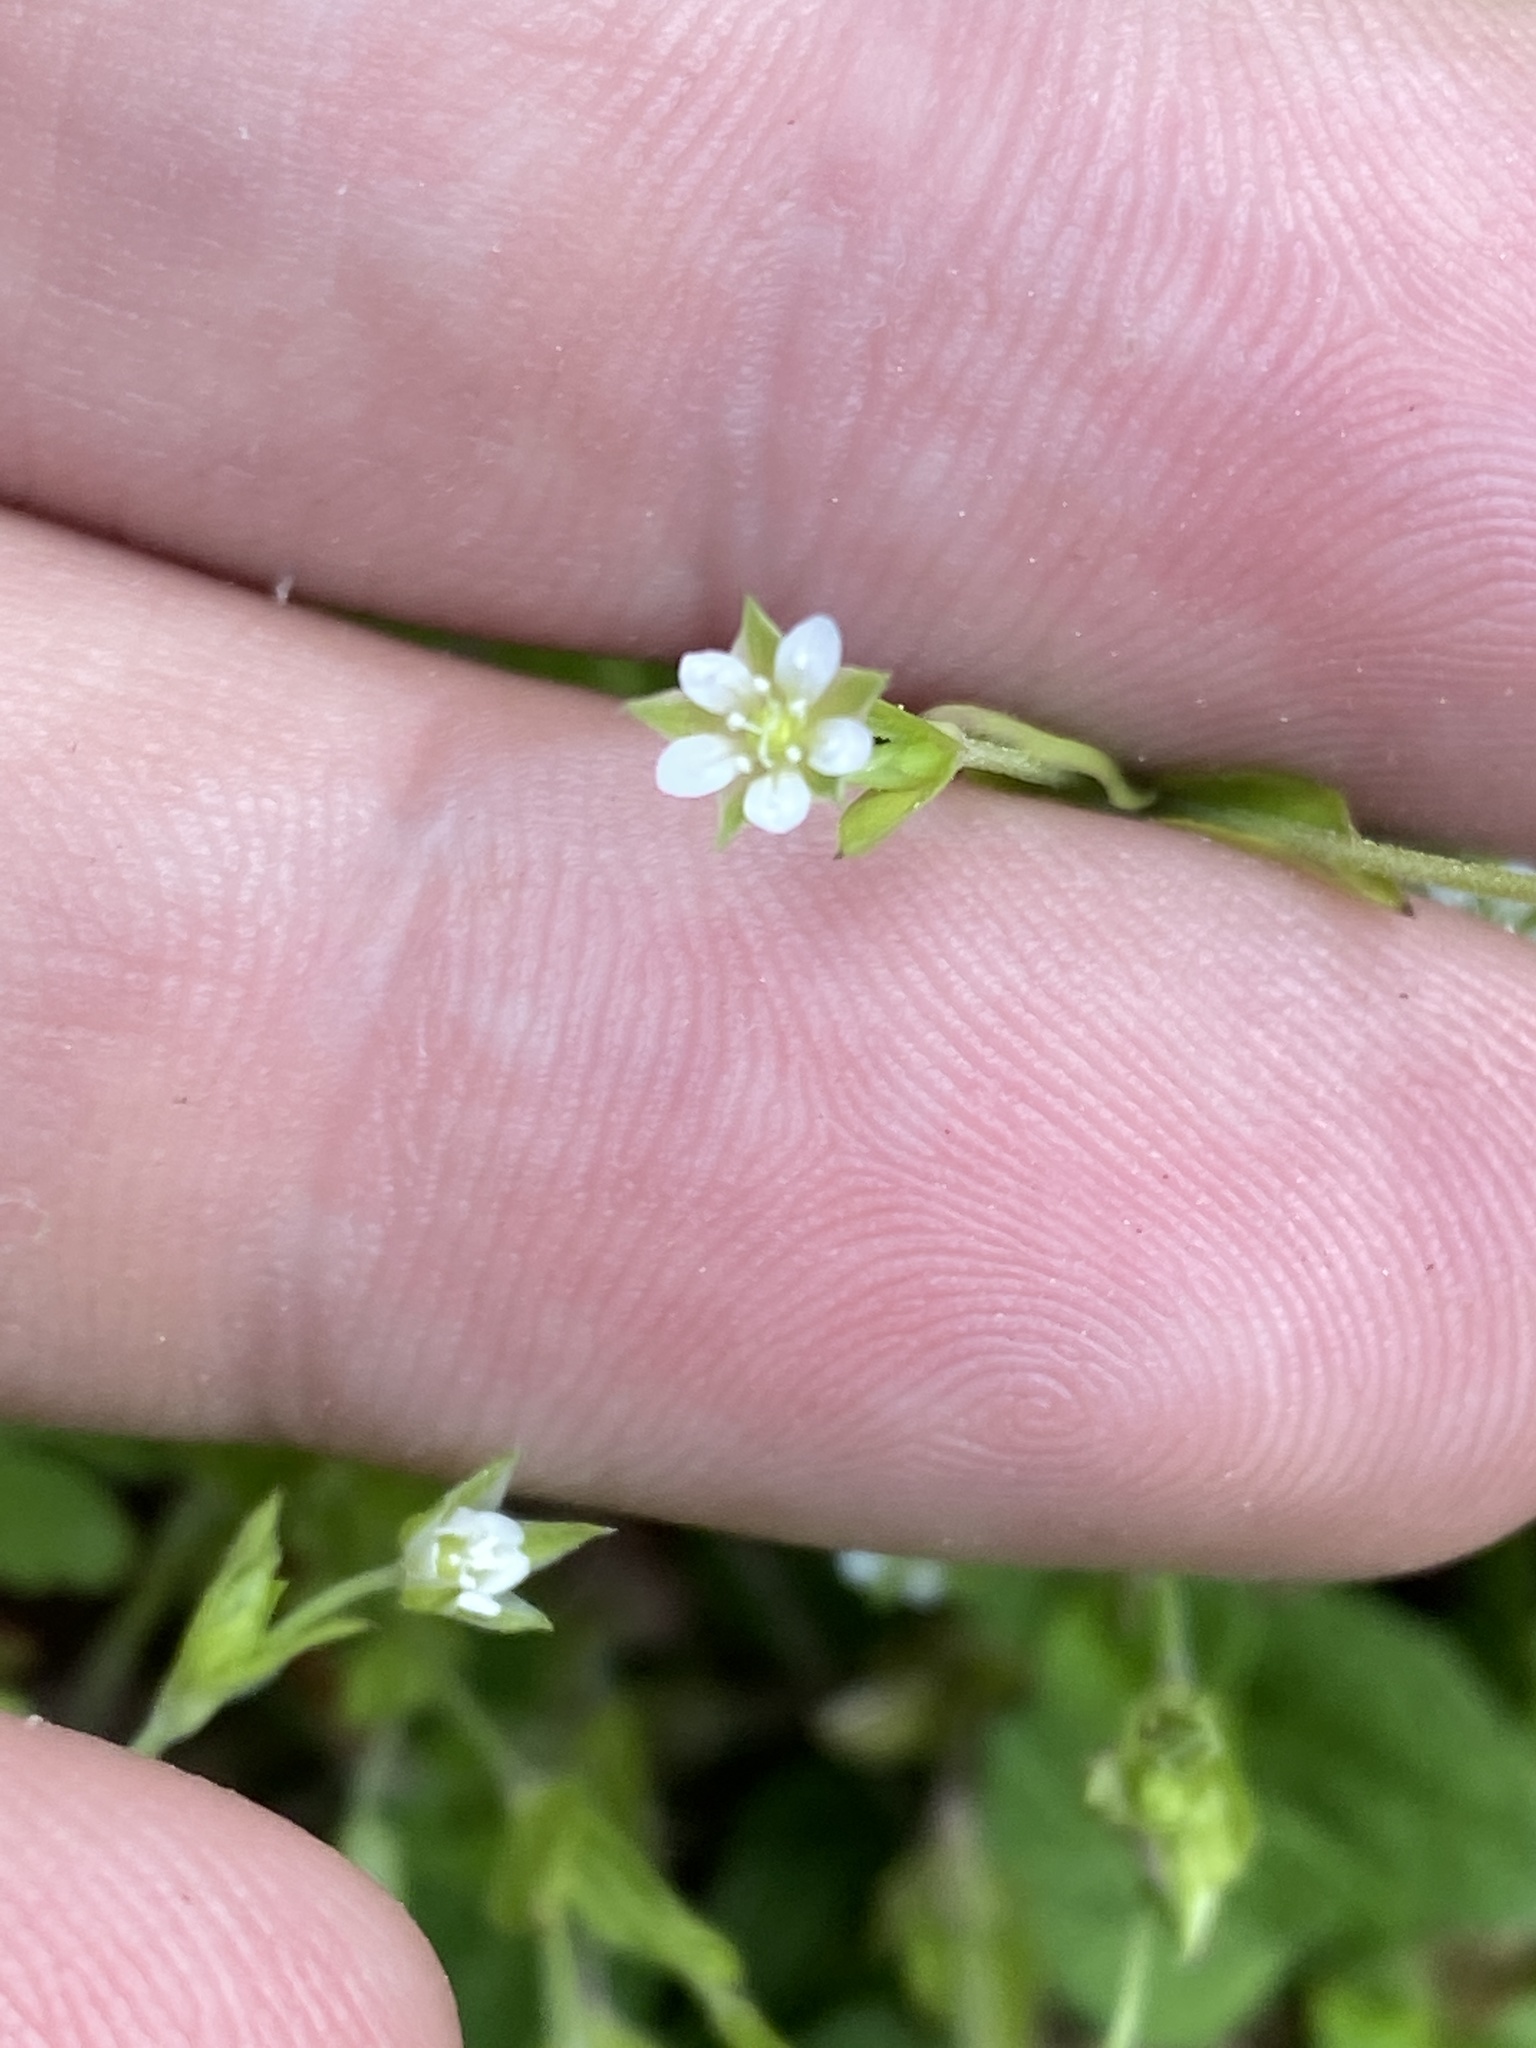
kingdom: Plantae
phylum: Tracheophyta
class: Magnoliopsida
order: Caryophyllales
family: Caryophyllaceae
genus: Moehringia
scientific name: Moehringia trinervia
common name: Three-nerved sandwort
